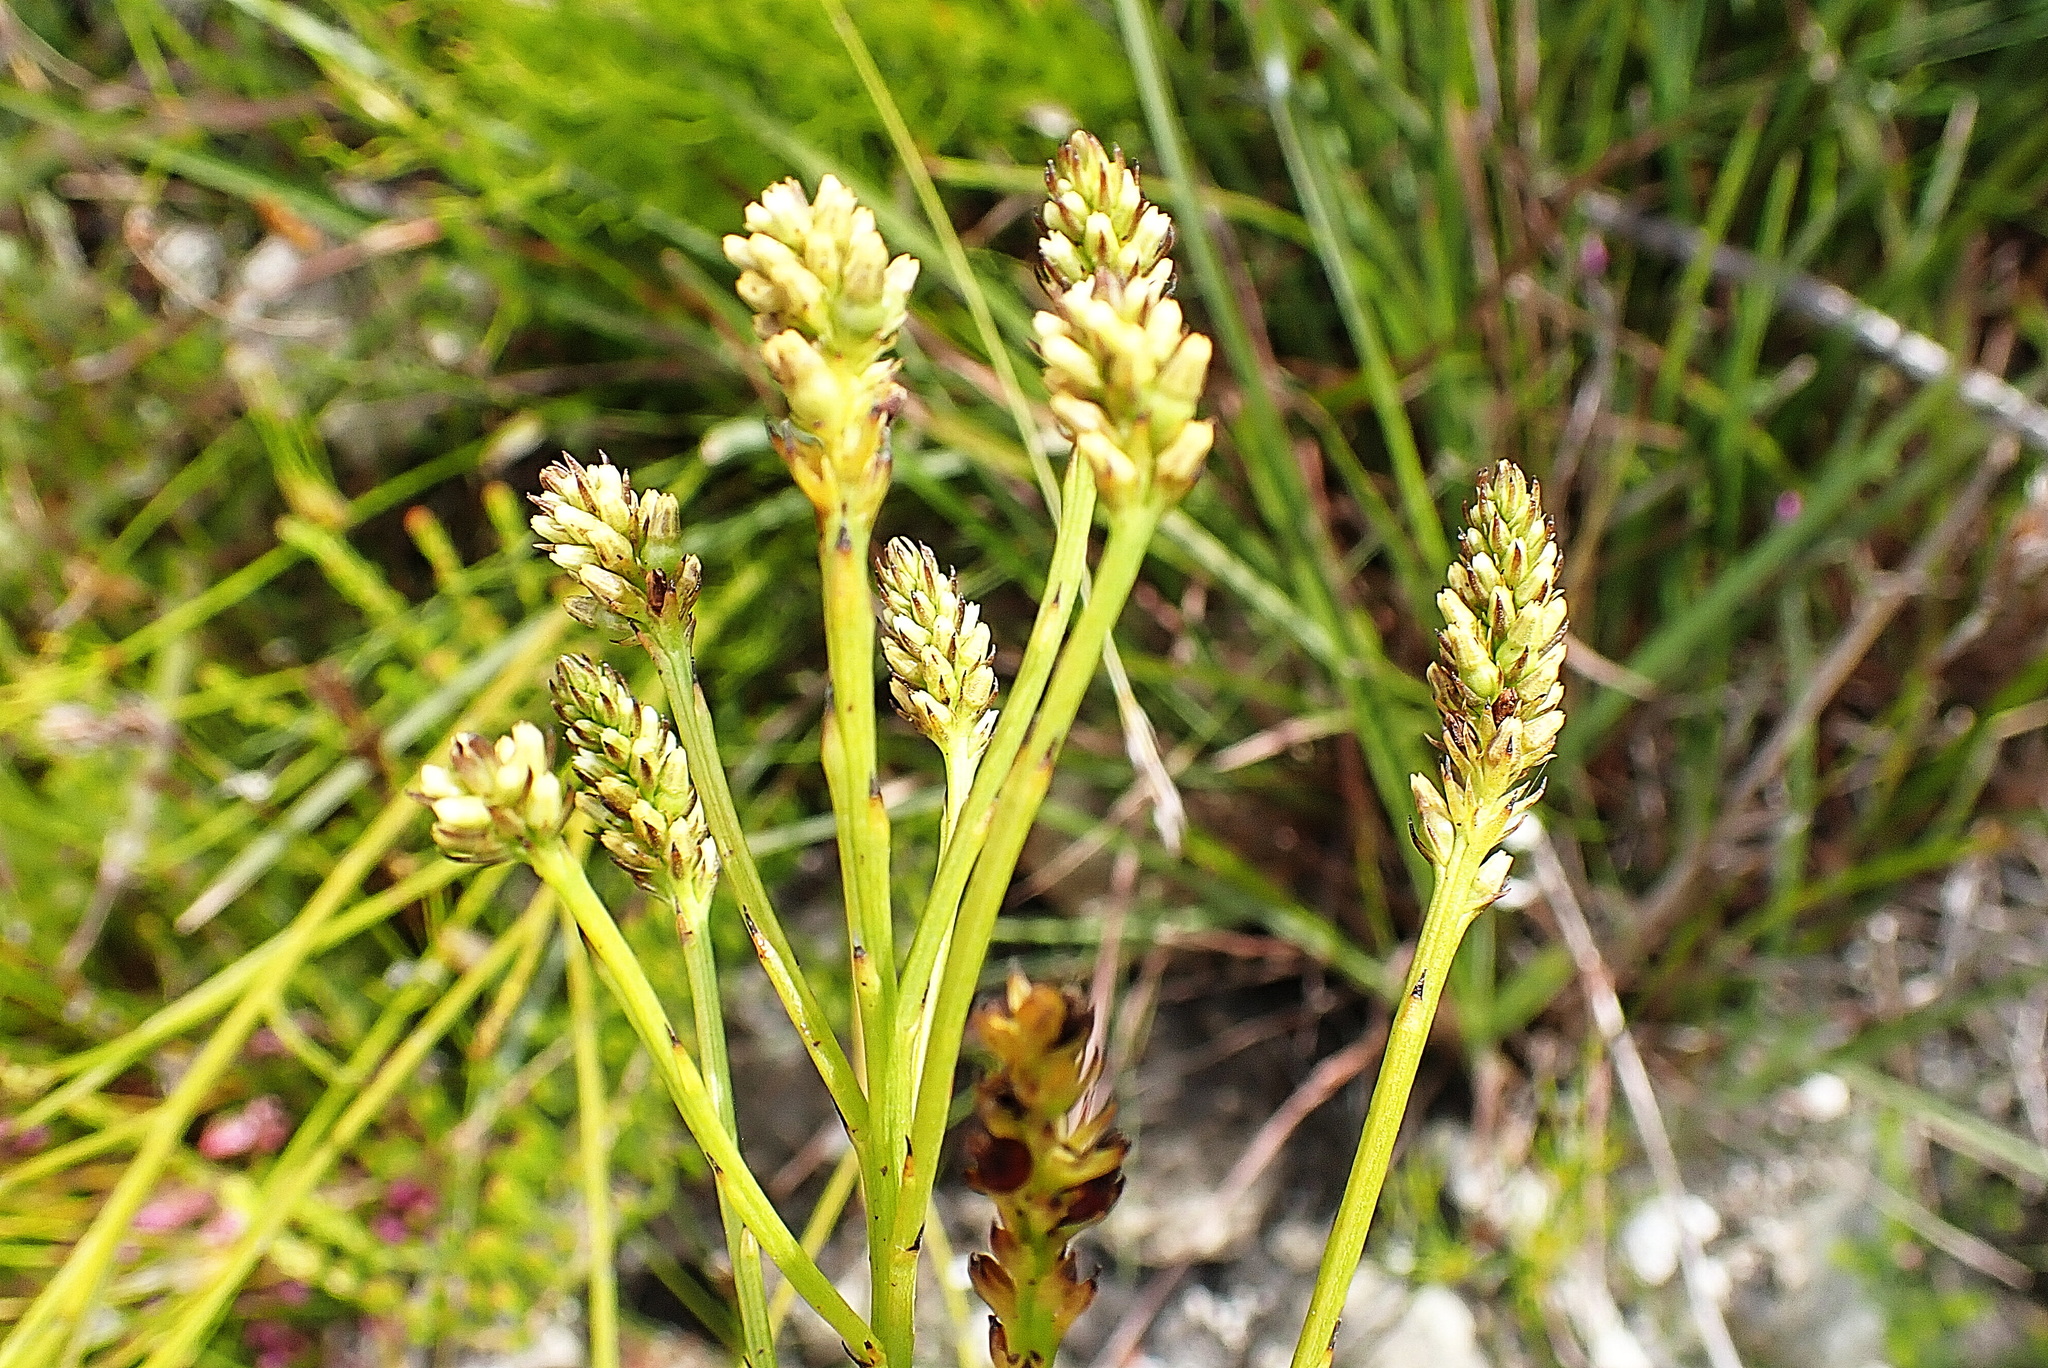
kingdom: Plantae
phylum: Tracheophyta
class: Magnoliopsida
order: Santalales
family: Thesiaceae
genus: Thesium
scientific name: Thesium aggregatum
